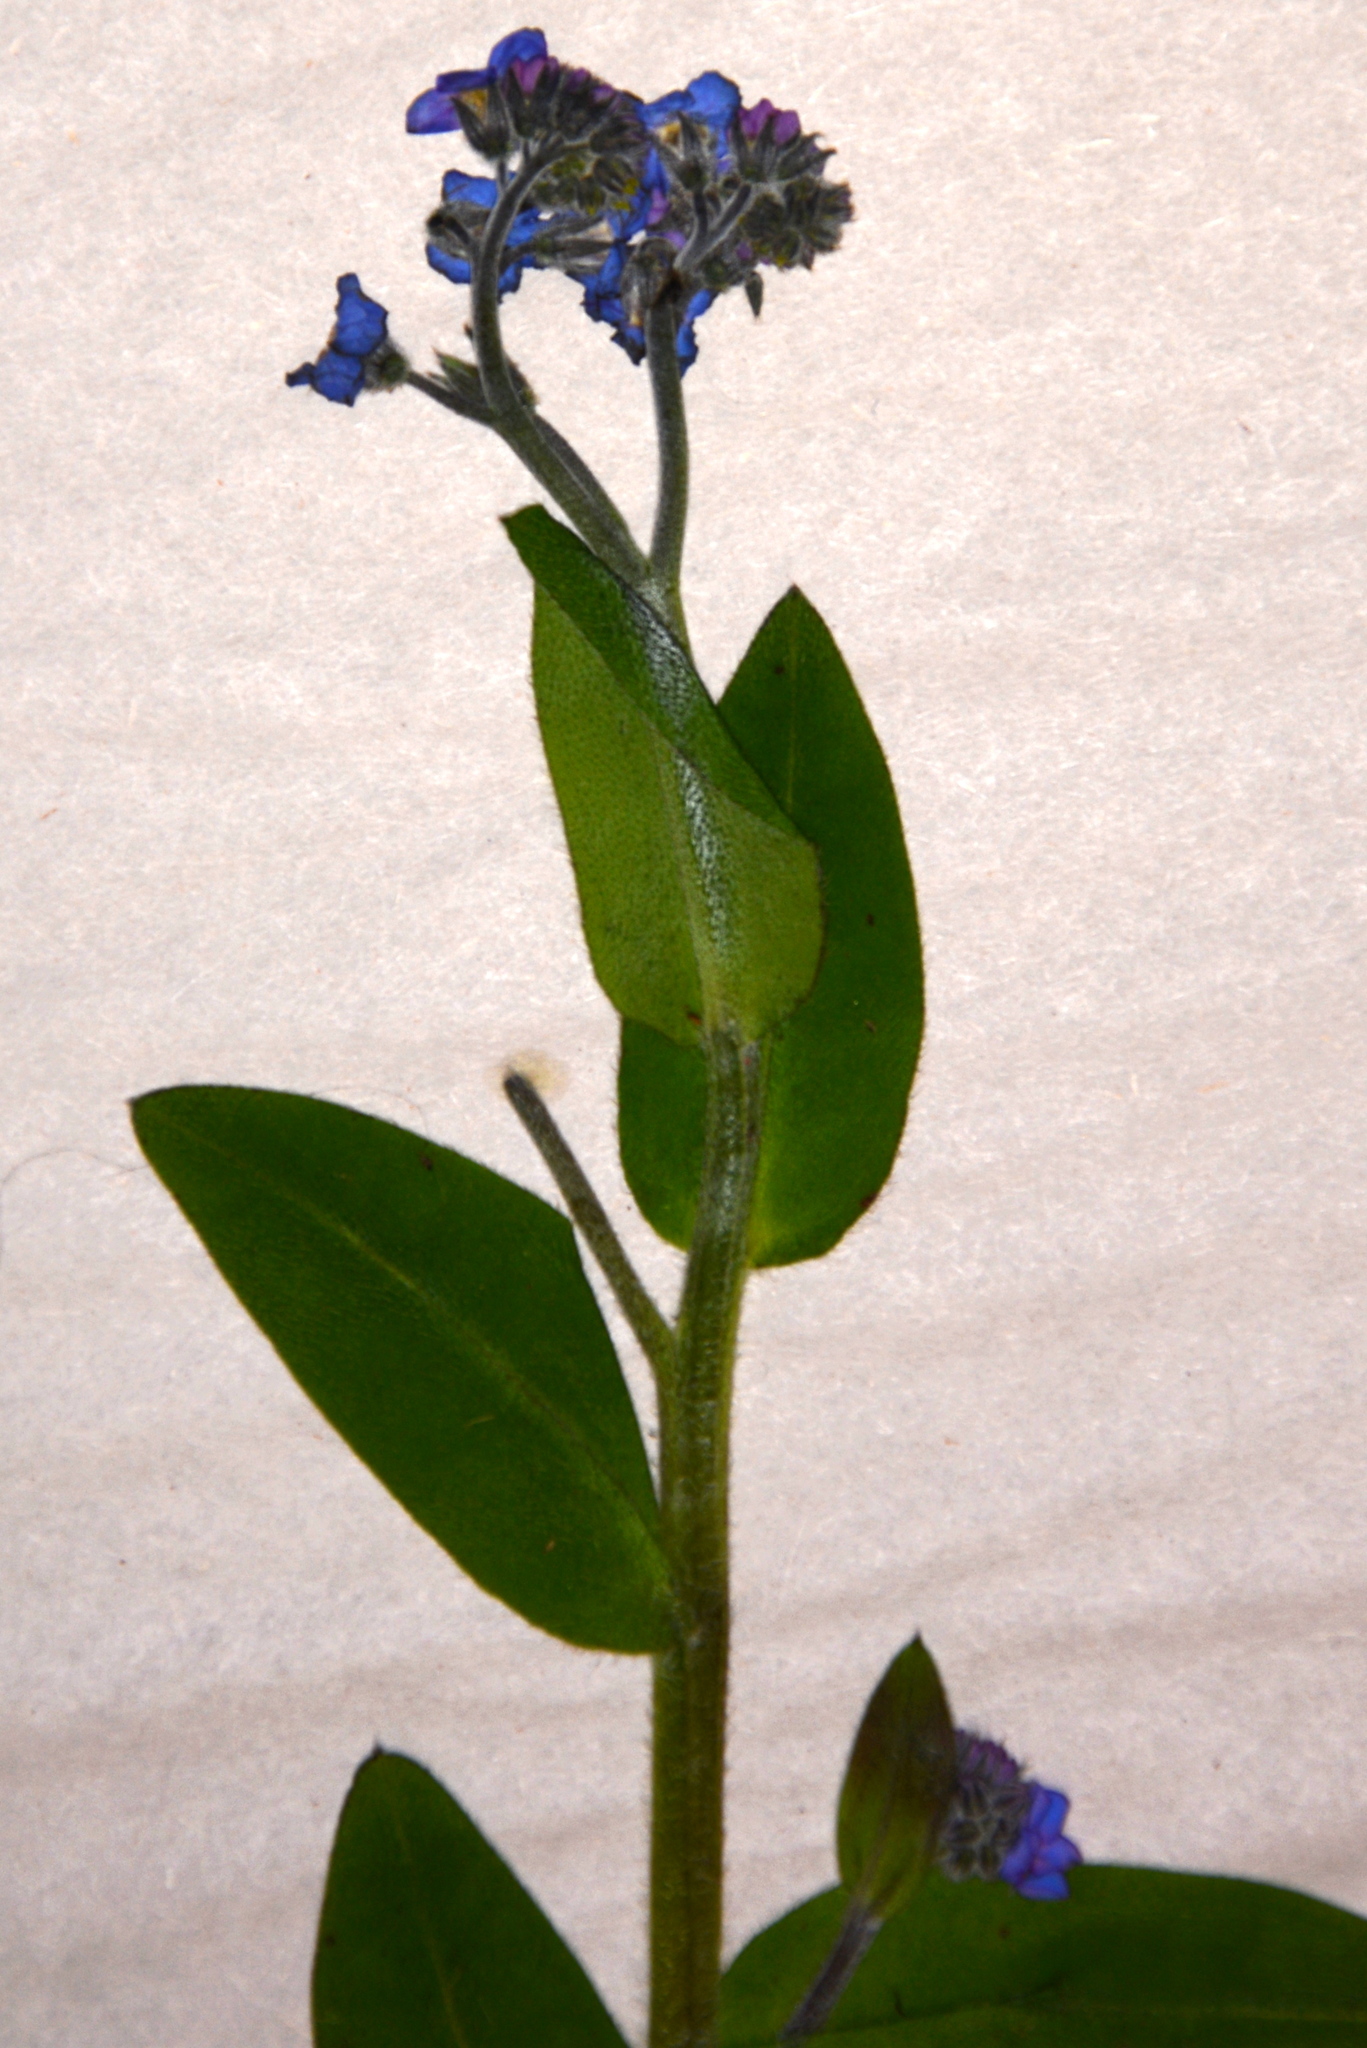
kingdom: Plantae
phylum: Tracheophyta
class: Magnoliopsida
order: Boraginales
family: Boraginaceae
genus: Myosotis
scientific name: Myosotis sylvatica
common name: Wood forget-me-not
